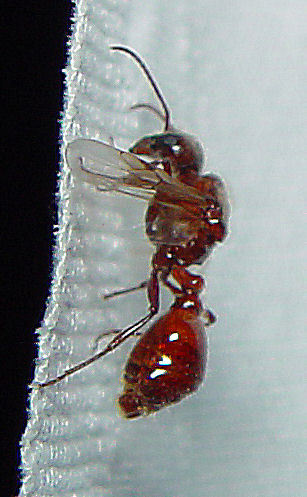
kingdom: Animalia
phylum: Arthropoda
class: Insecta
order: Hymenoptera
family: Formicidae
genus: Pogonomyrmex
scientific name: Pogonomyrmex rugosus
